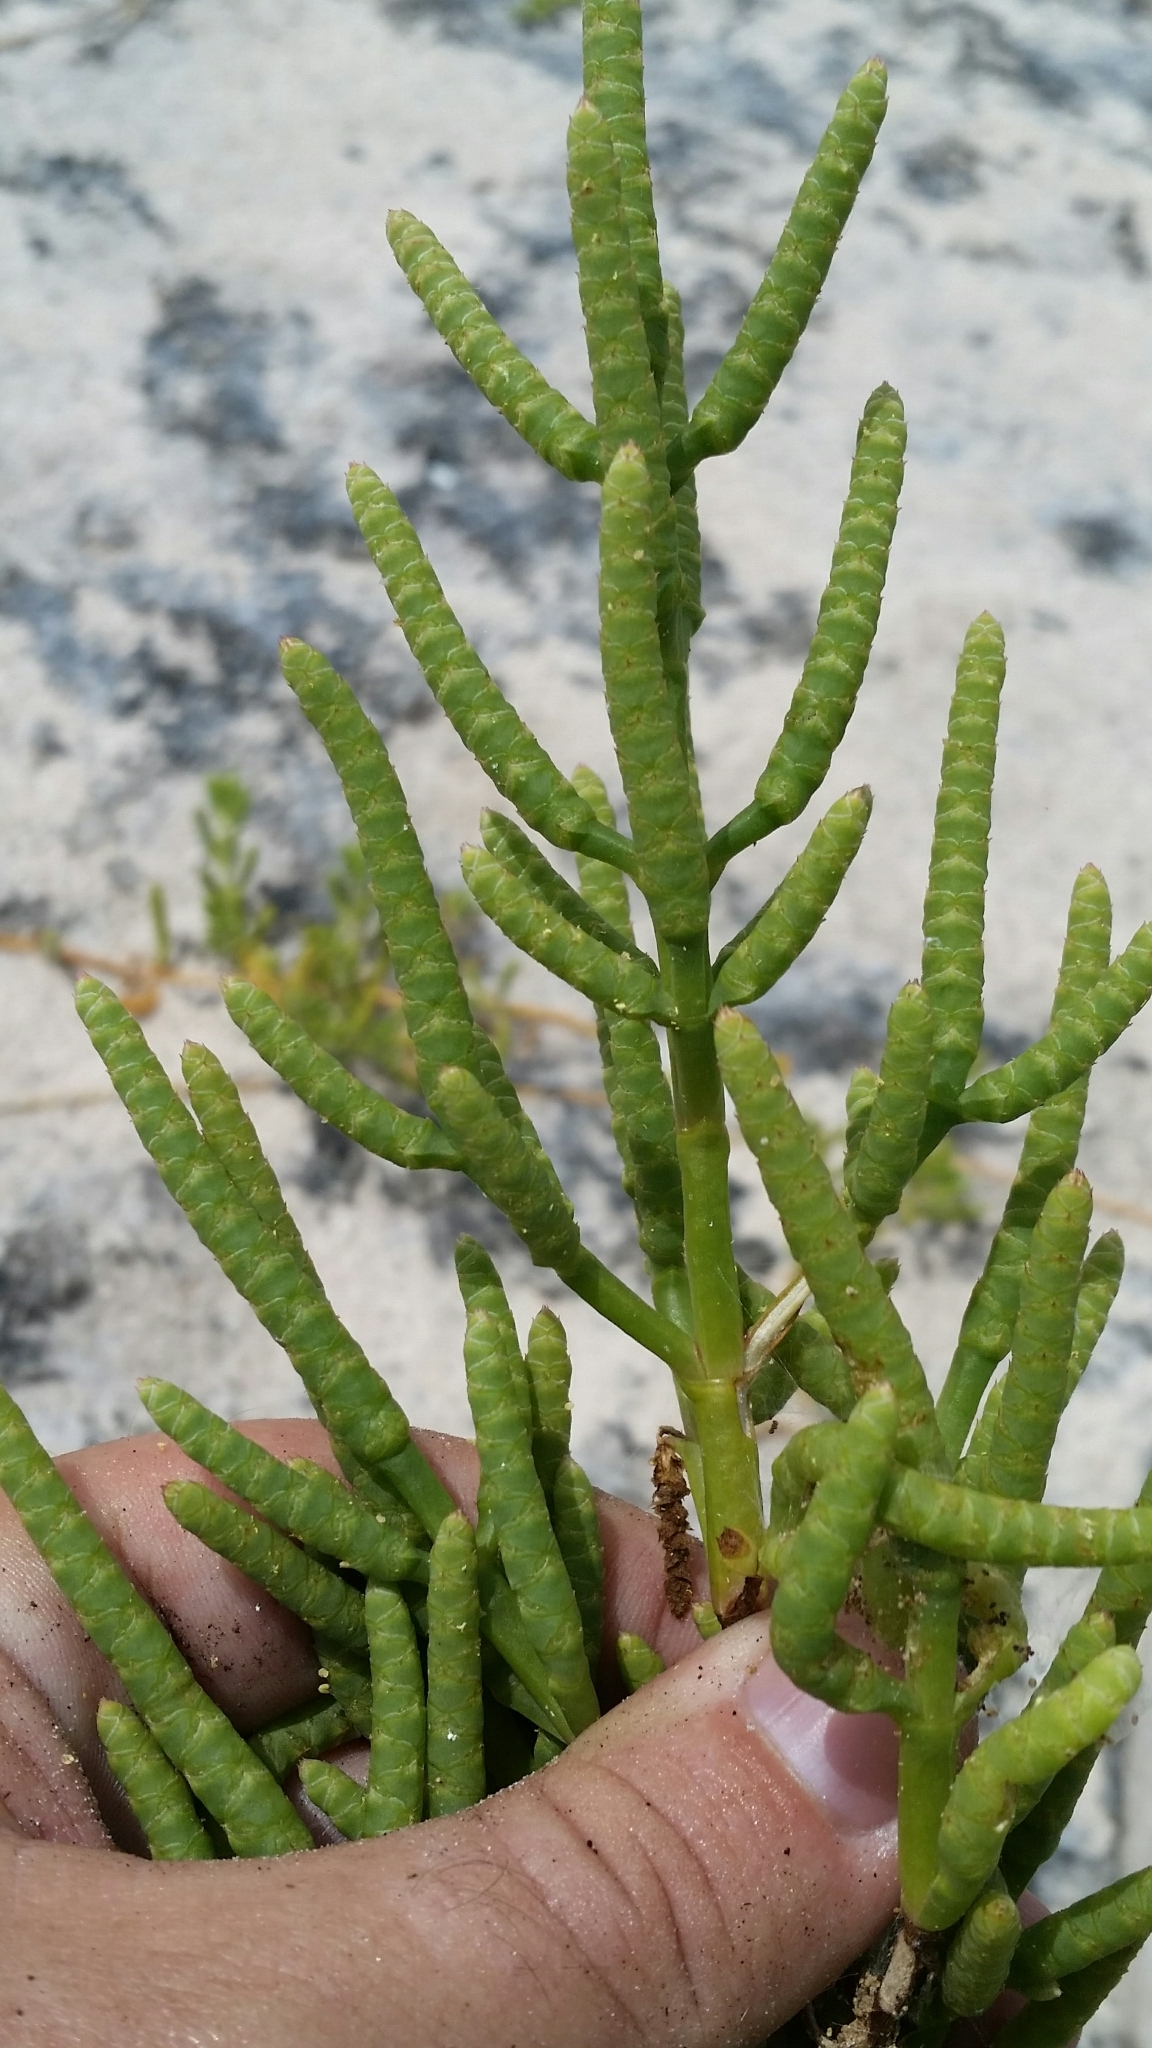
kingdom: Plantae
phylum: Tracheophyta
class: Magnoliopsida
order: Caryophyllales
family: Amaranthaceae
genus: Salicornia
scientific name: Salicornia bigelovii
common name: Dwarf glasswort
